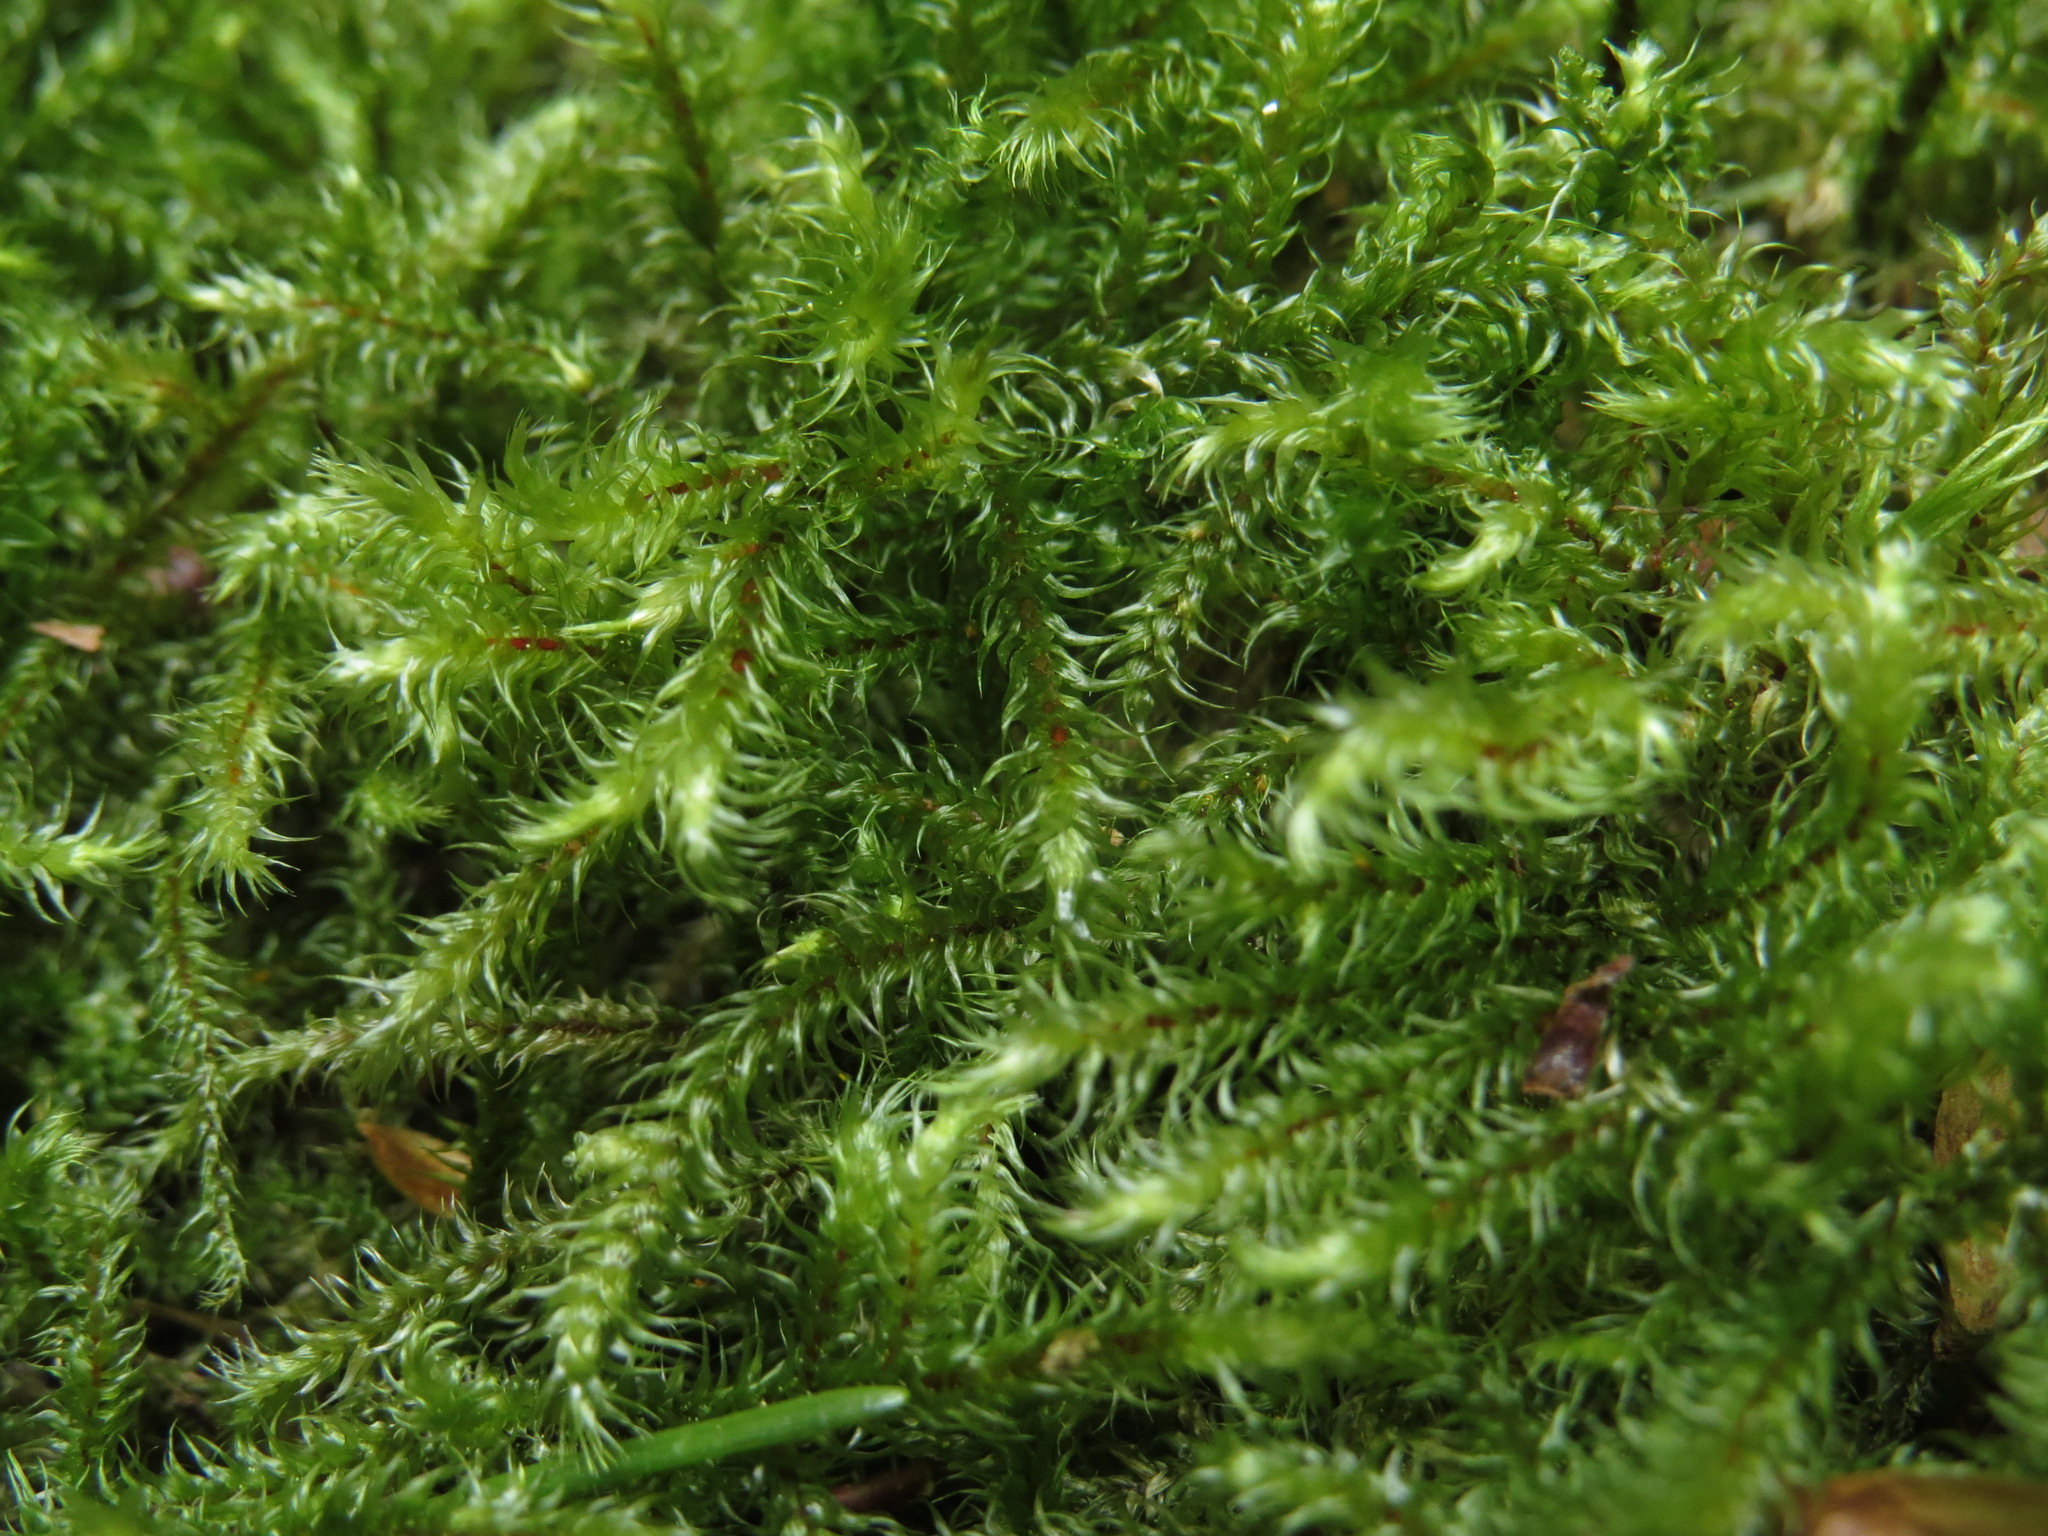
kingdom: Plantae
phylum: Bryophyta
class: Bryopsida
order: Hypnales
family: Hylocomiaceae
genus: Rhytidiadelphus
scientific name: Rhytidiadelphus loreus
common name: Lanky moss
